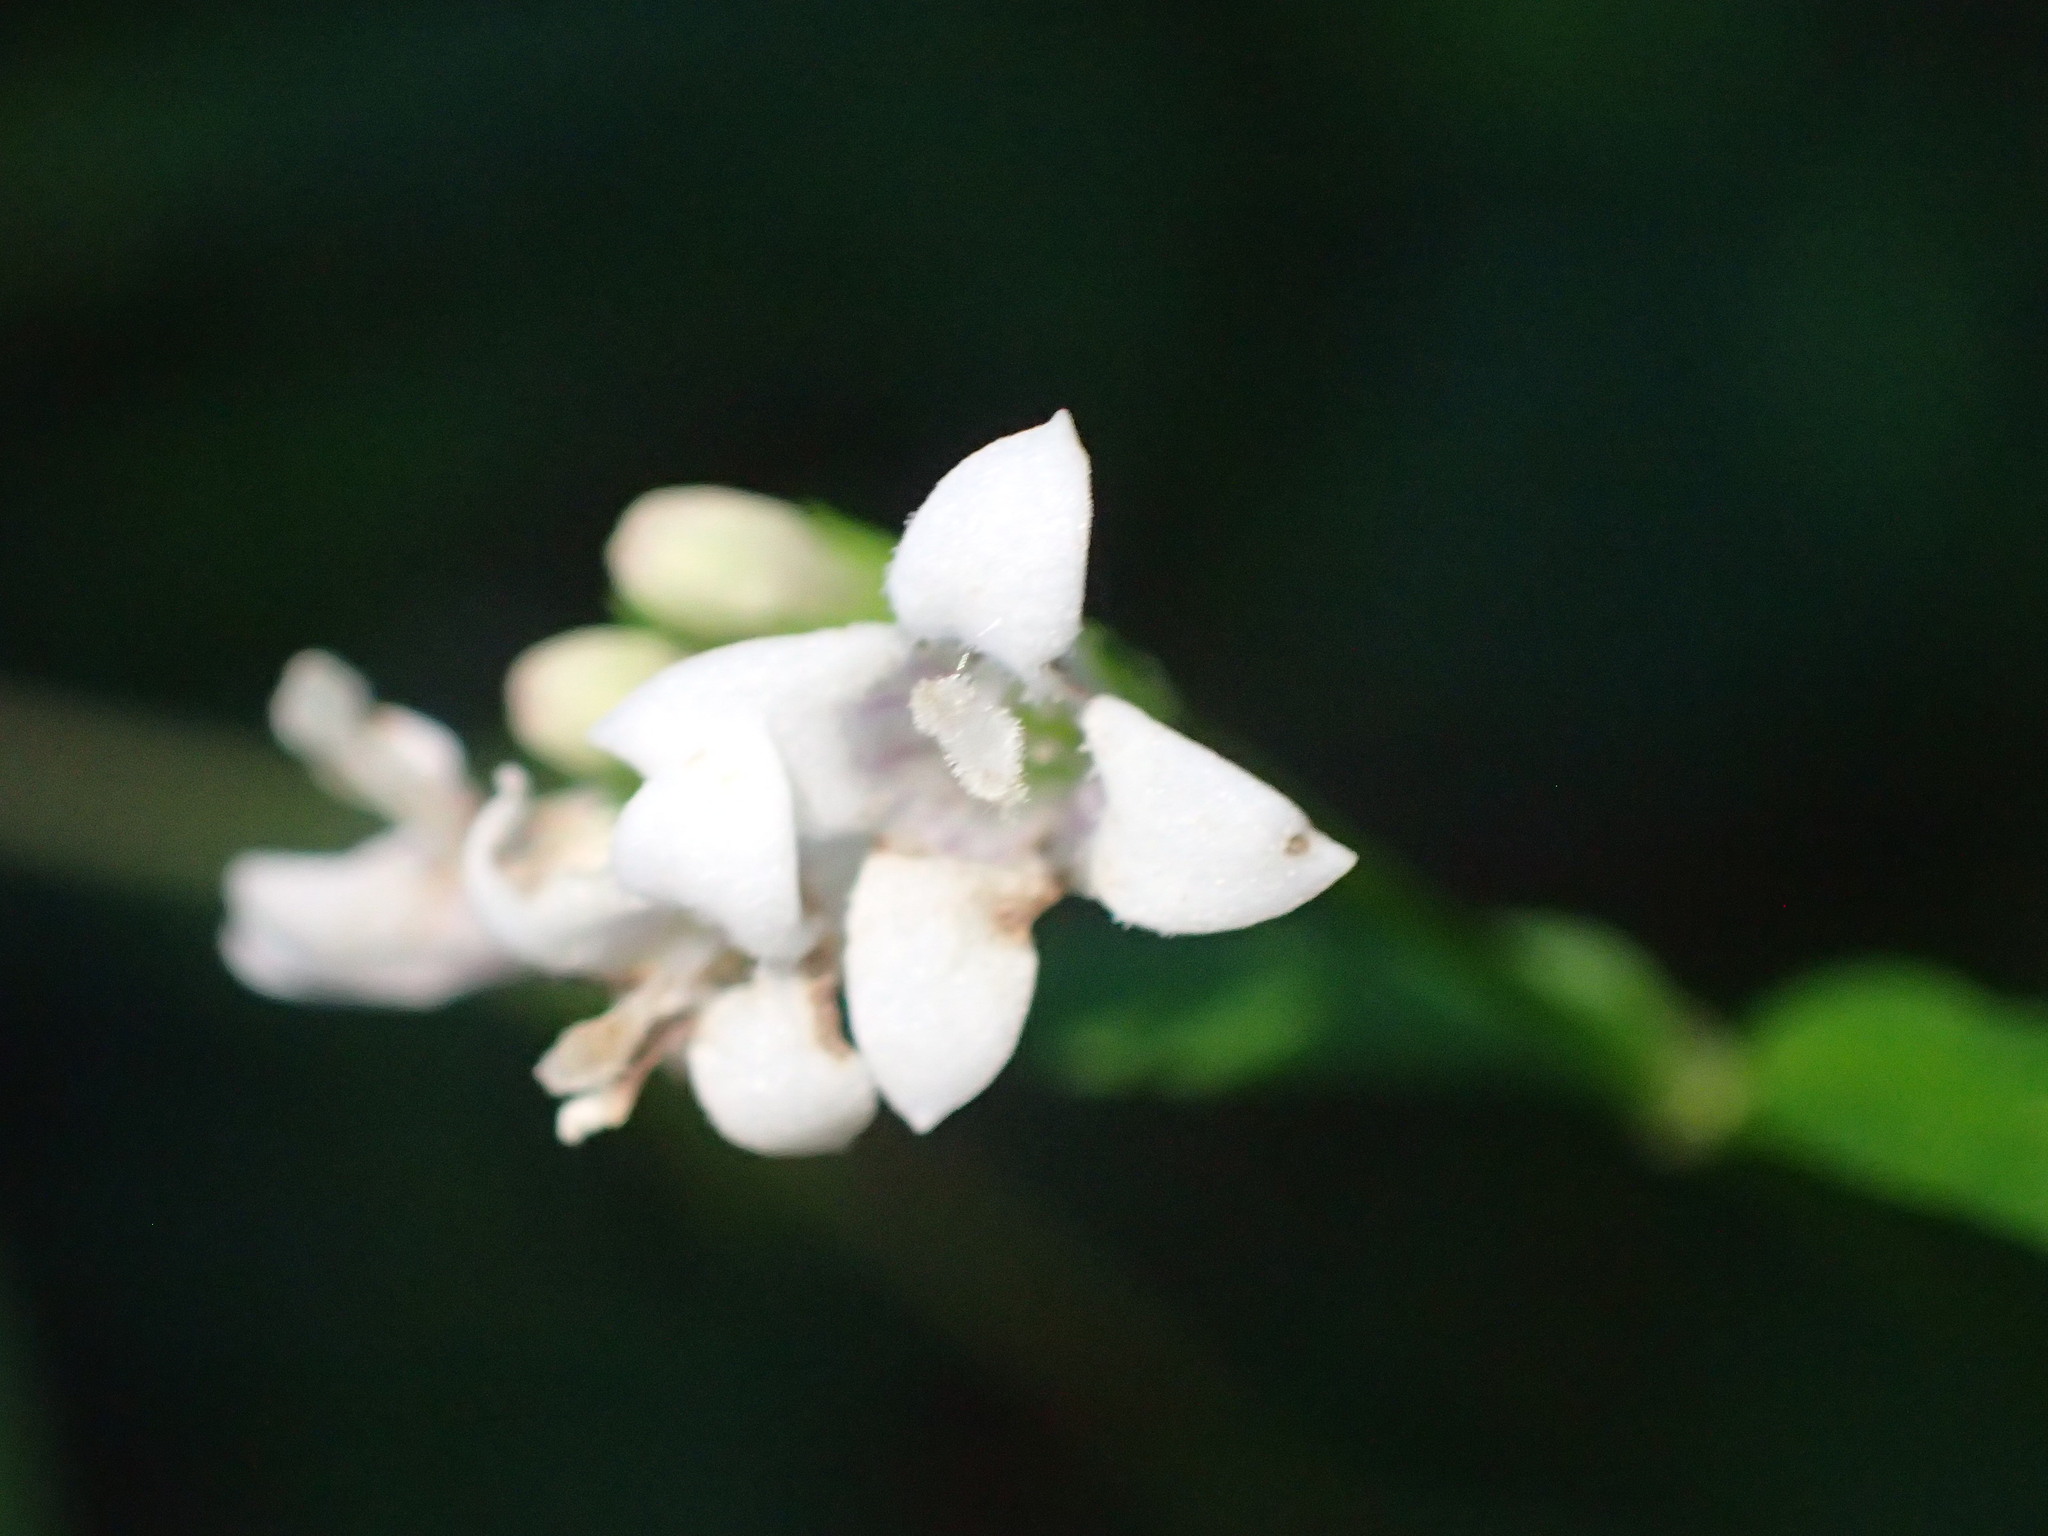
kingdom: Plantae
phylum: Tracheophyta
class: Magnoliopsida
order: Gentianales
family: Rubiaceae
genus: Houstonia
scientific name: Houstonia purpurea
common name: Summer bluet
